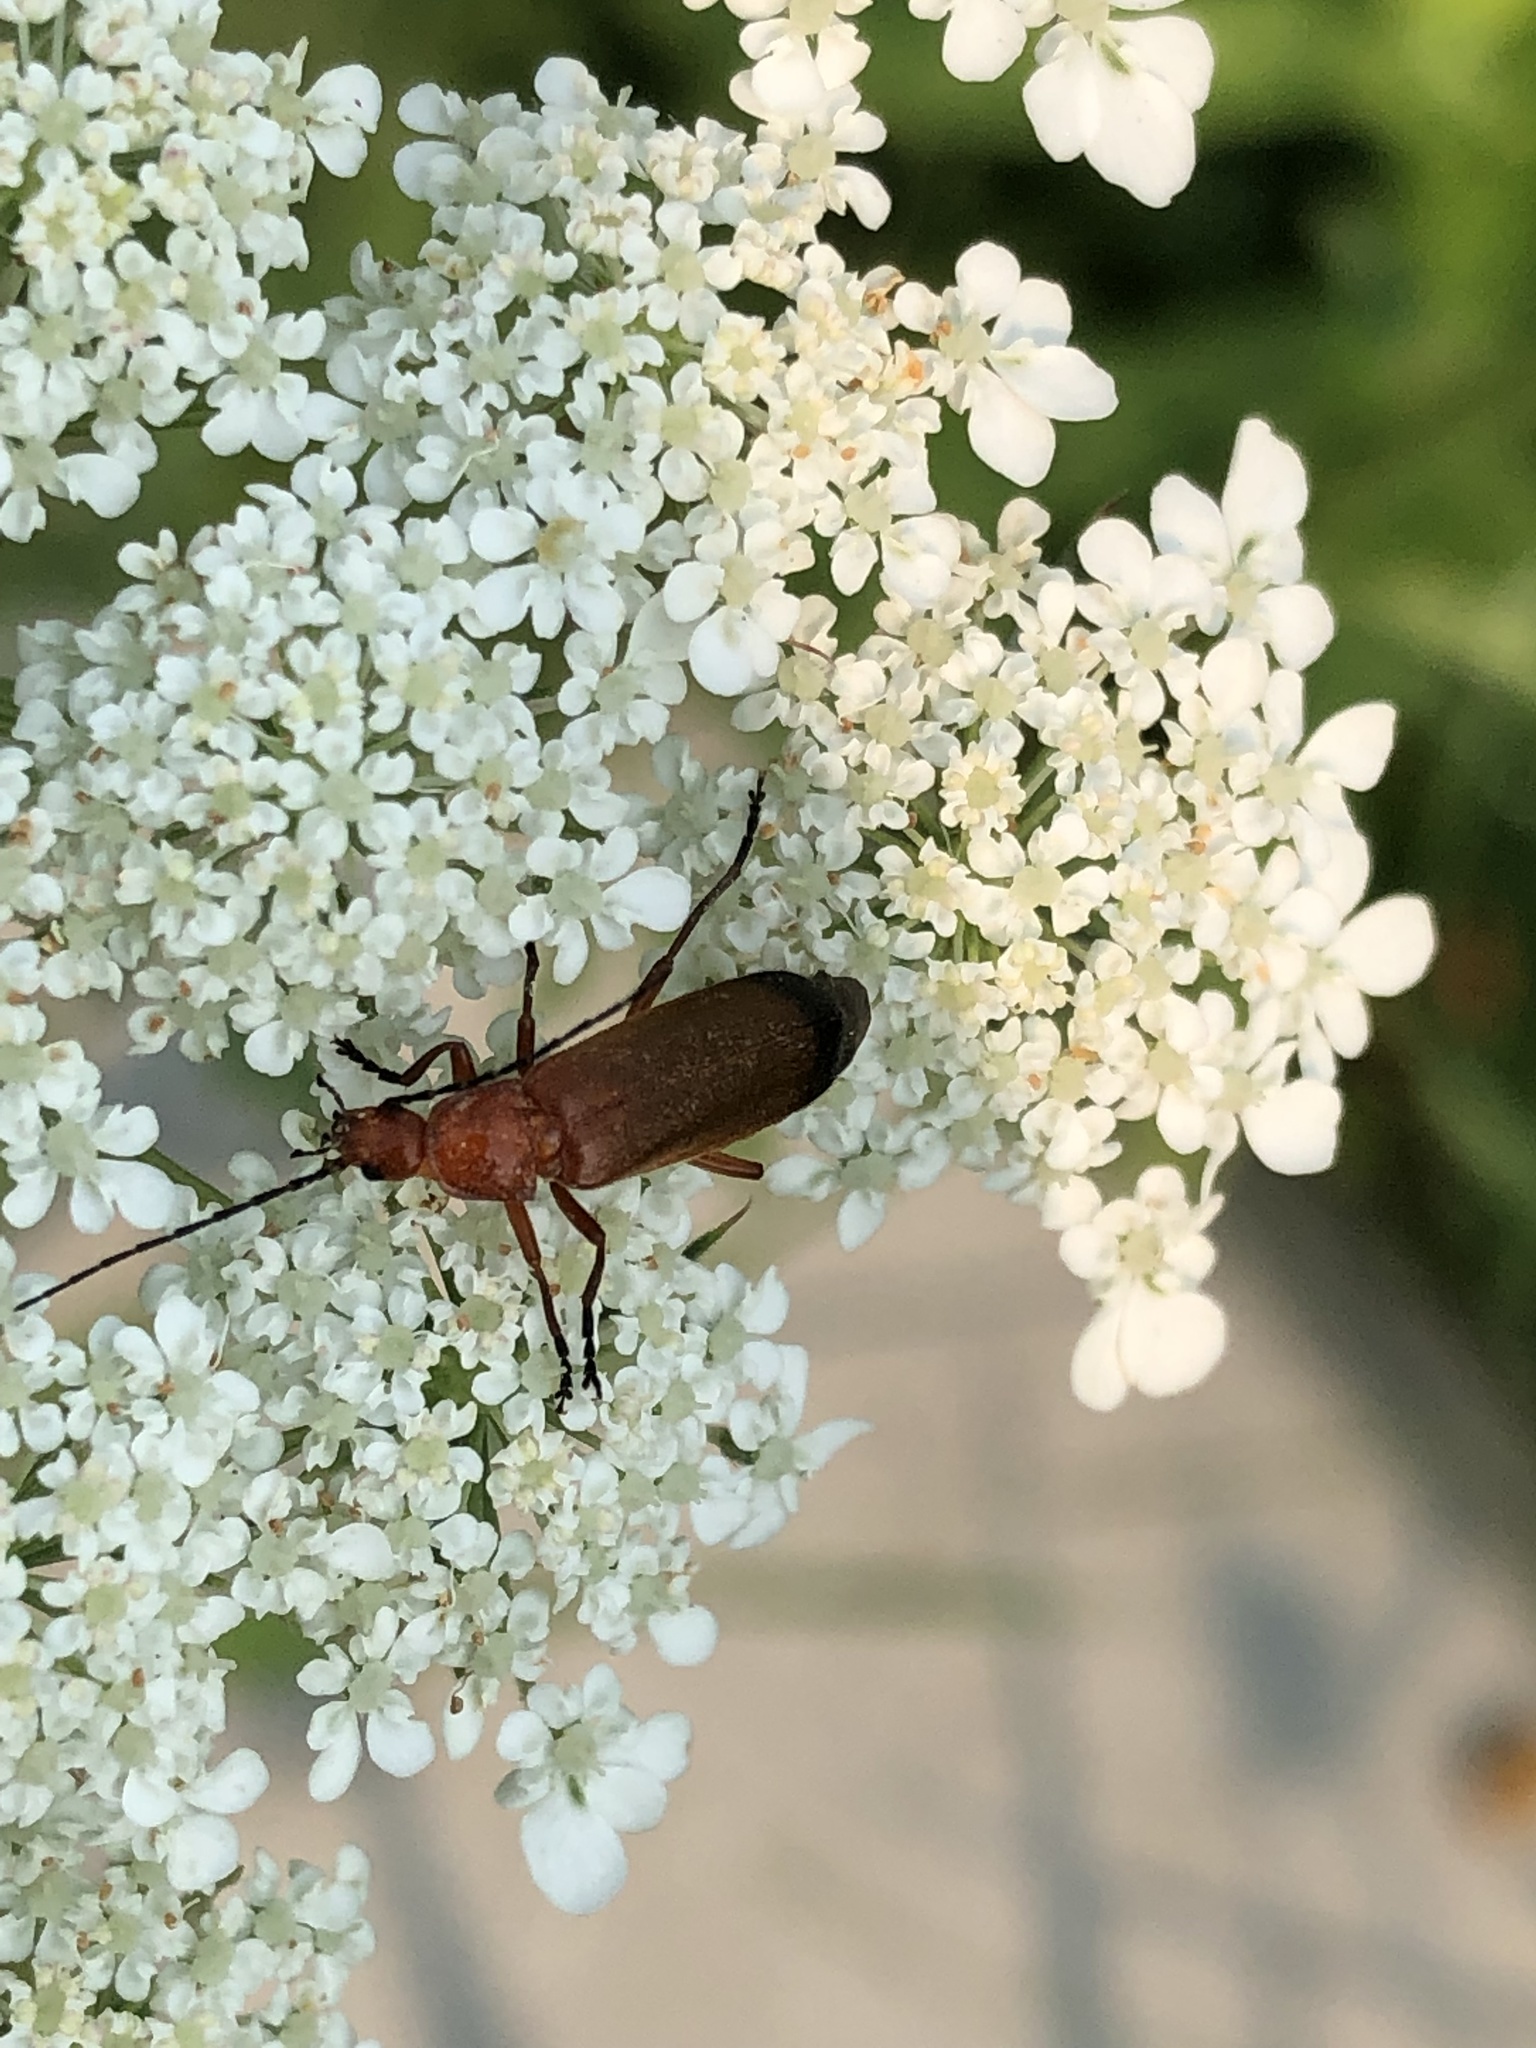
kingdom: Animalia
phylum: Arthropoda
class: Insecta
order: Coleoptera
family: Cantharidae
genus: Rhagonycha
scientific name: Rhagonycha fulva
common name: Common red soldier beetle
